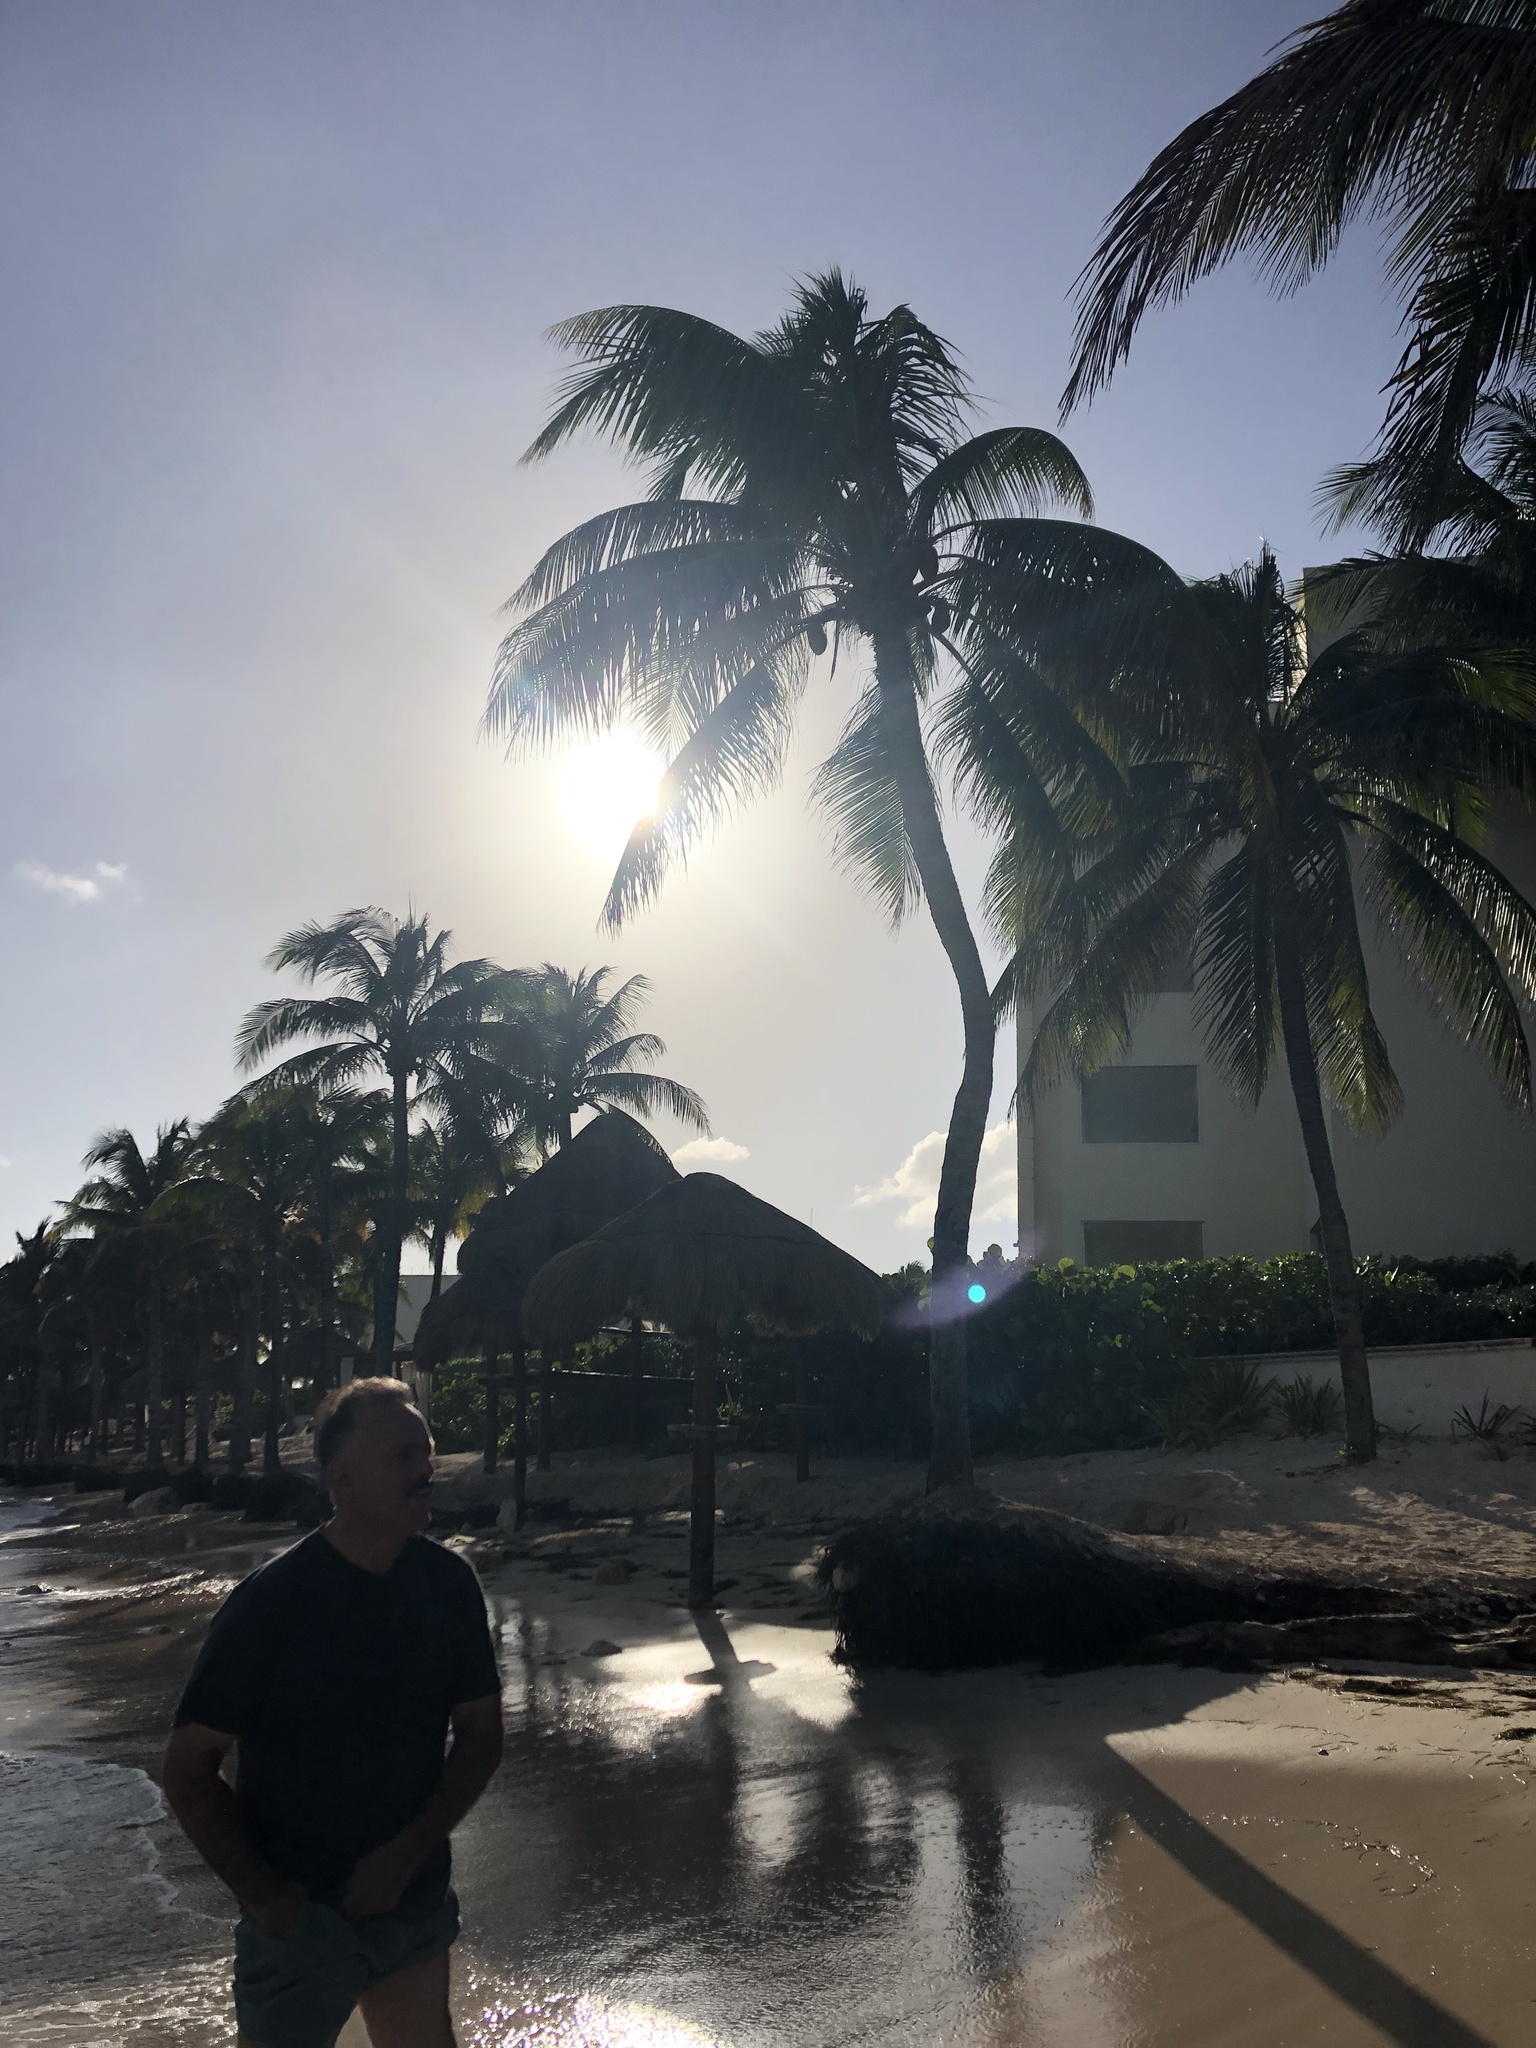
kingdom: Plantae
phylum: Tracheophyta
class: Liliopsida
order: Arecales
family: Arecaceae
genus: Cocos
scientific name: Cocos nucifera
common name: Coconut palm
